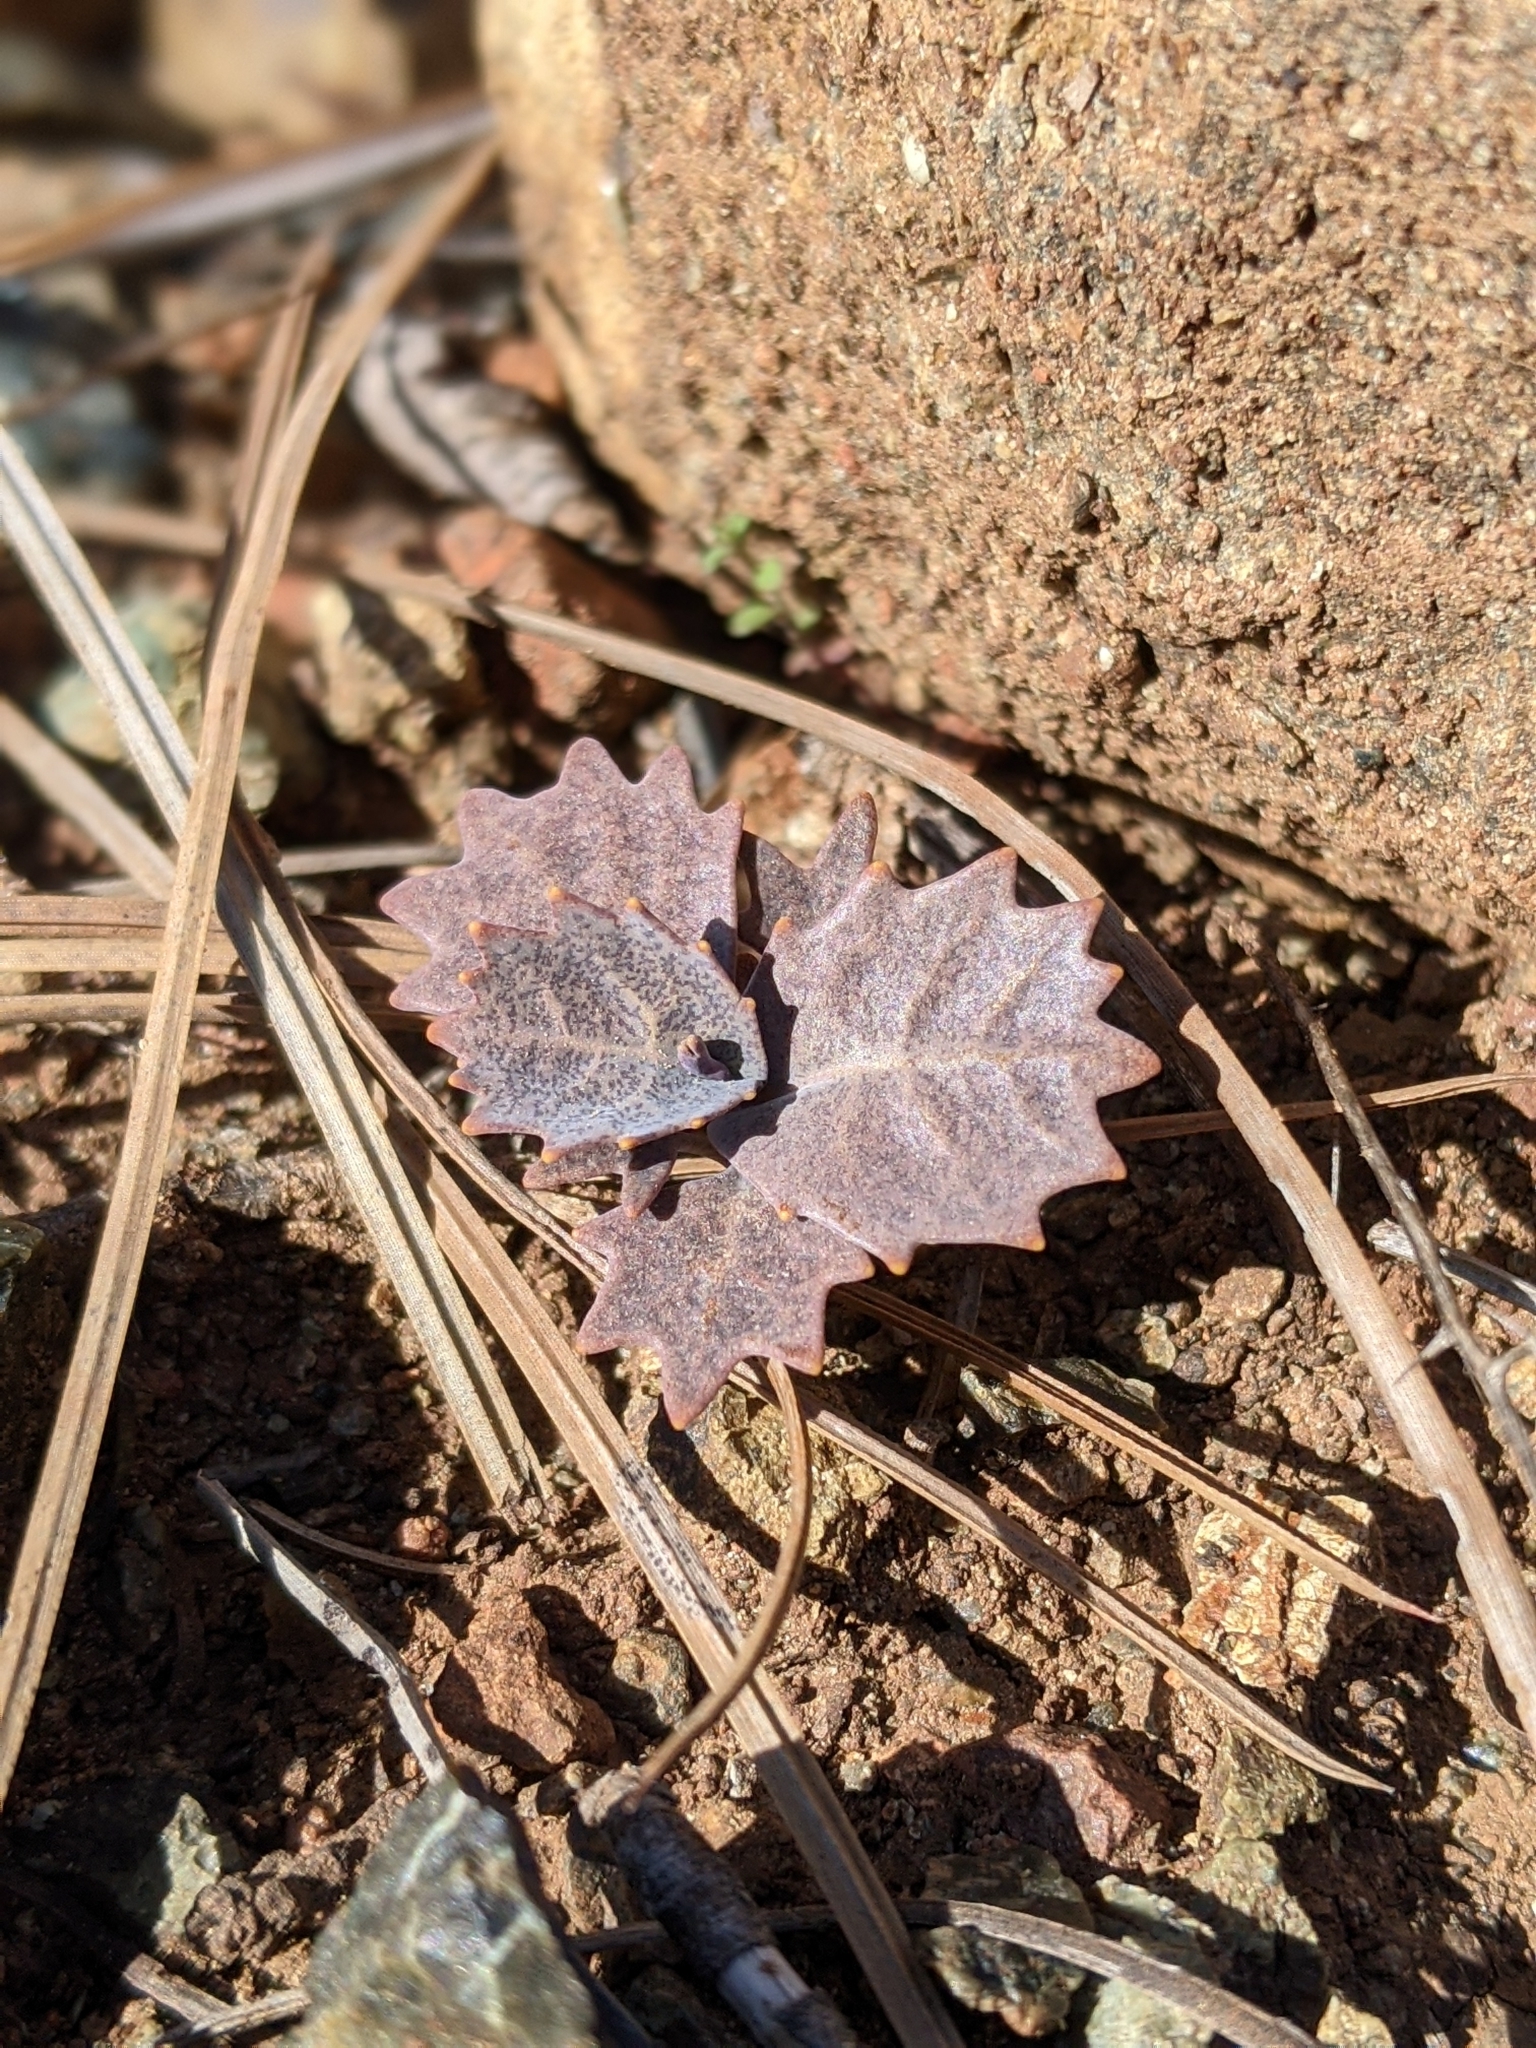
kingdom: Plantae
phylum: Tracheophyta
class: Magnoliopsida
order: Brassicales
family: Brassicaceae
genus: Streptanthus
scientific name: Streptanthus breweri
